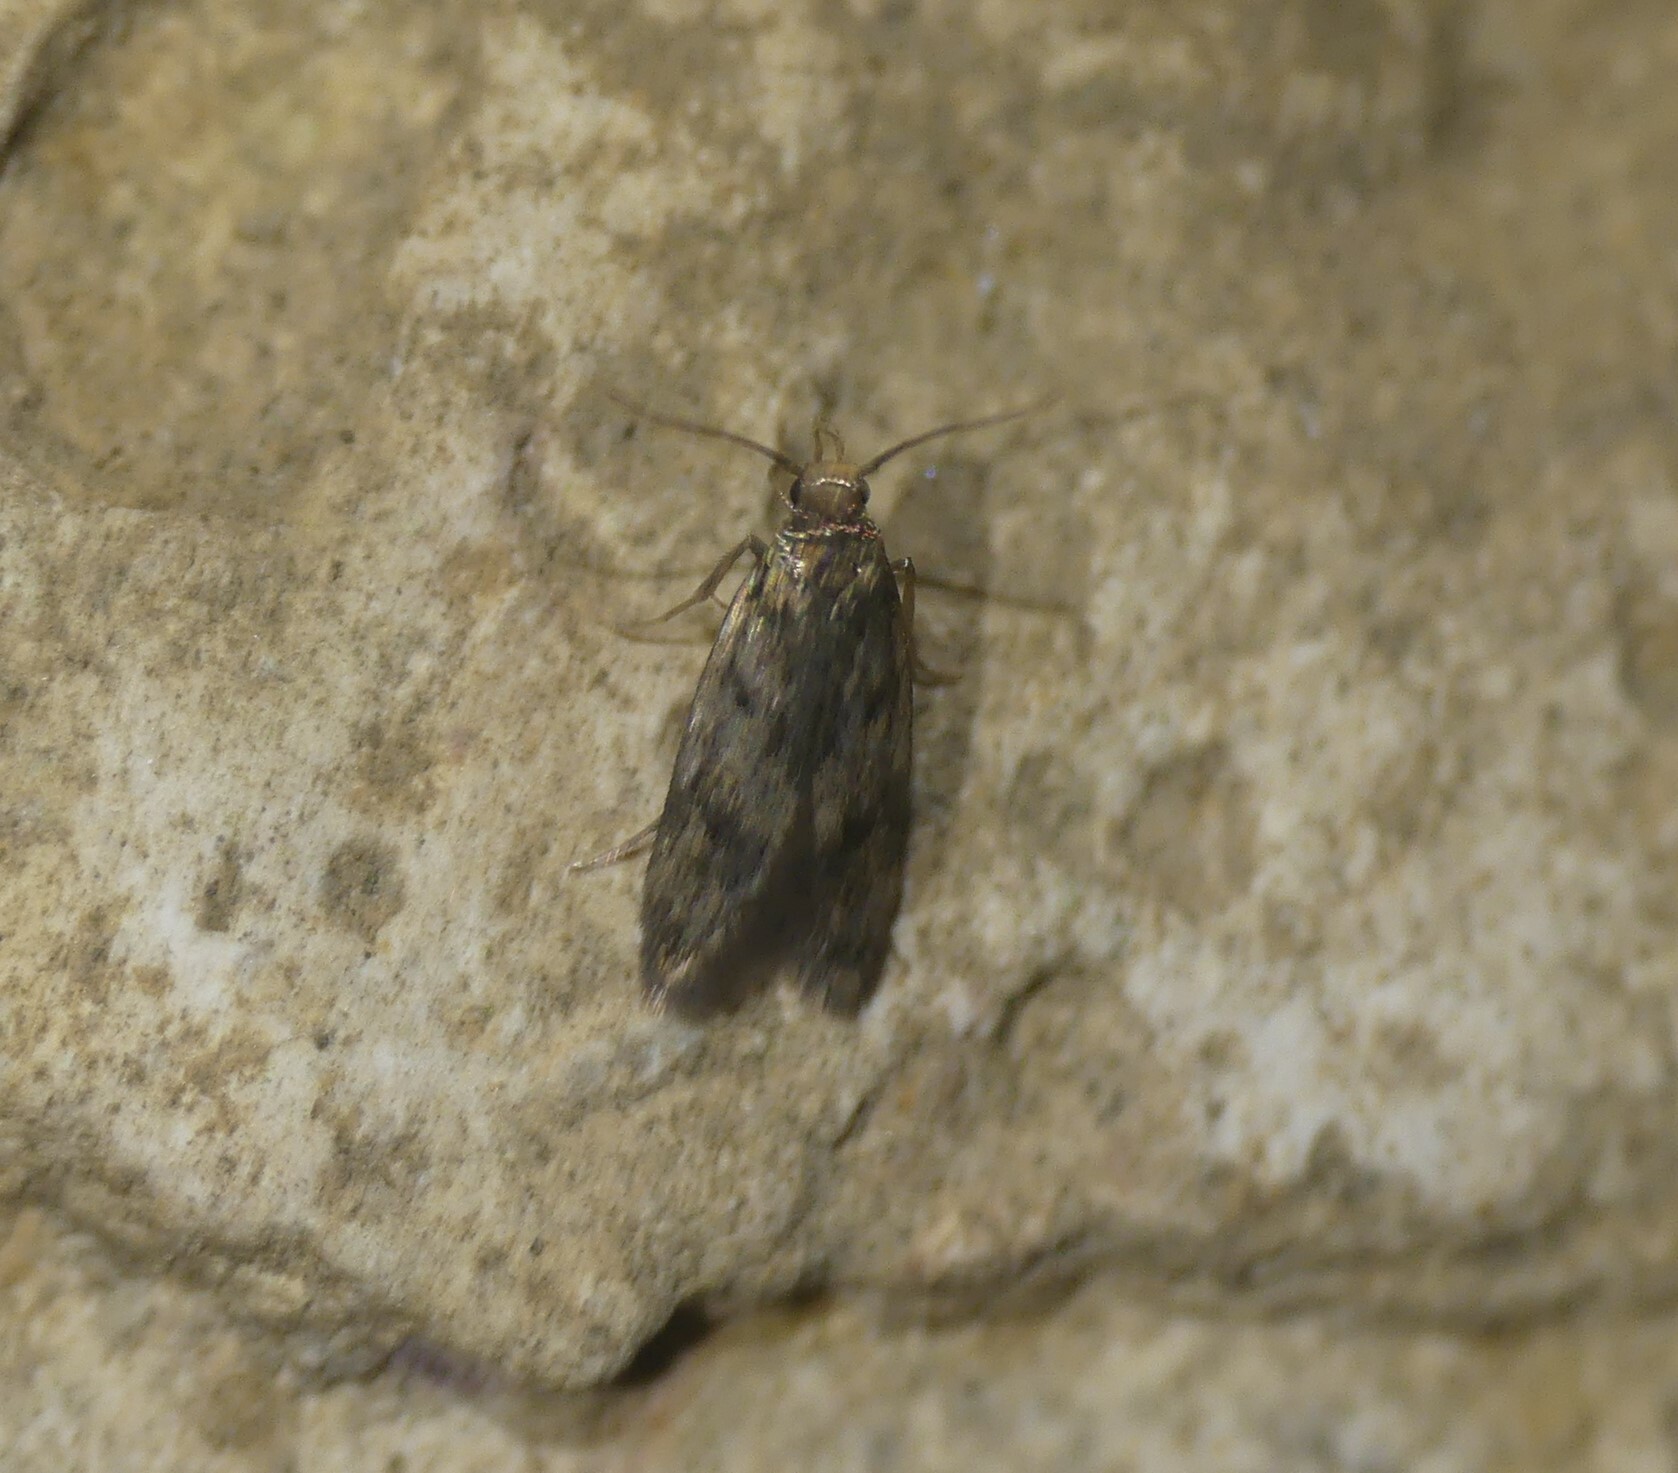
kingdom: Animalia
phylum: Arthropoda
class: Insecta
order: Lepidoptera
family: Oecophoridae
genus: Borkhausenia
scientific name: Borkhausenia fuscescens
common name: Small dingy tubic
